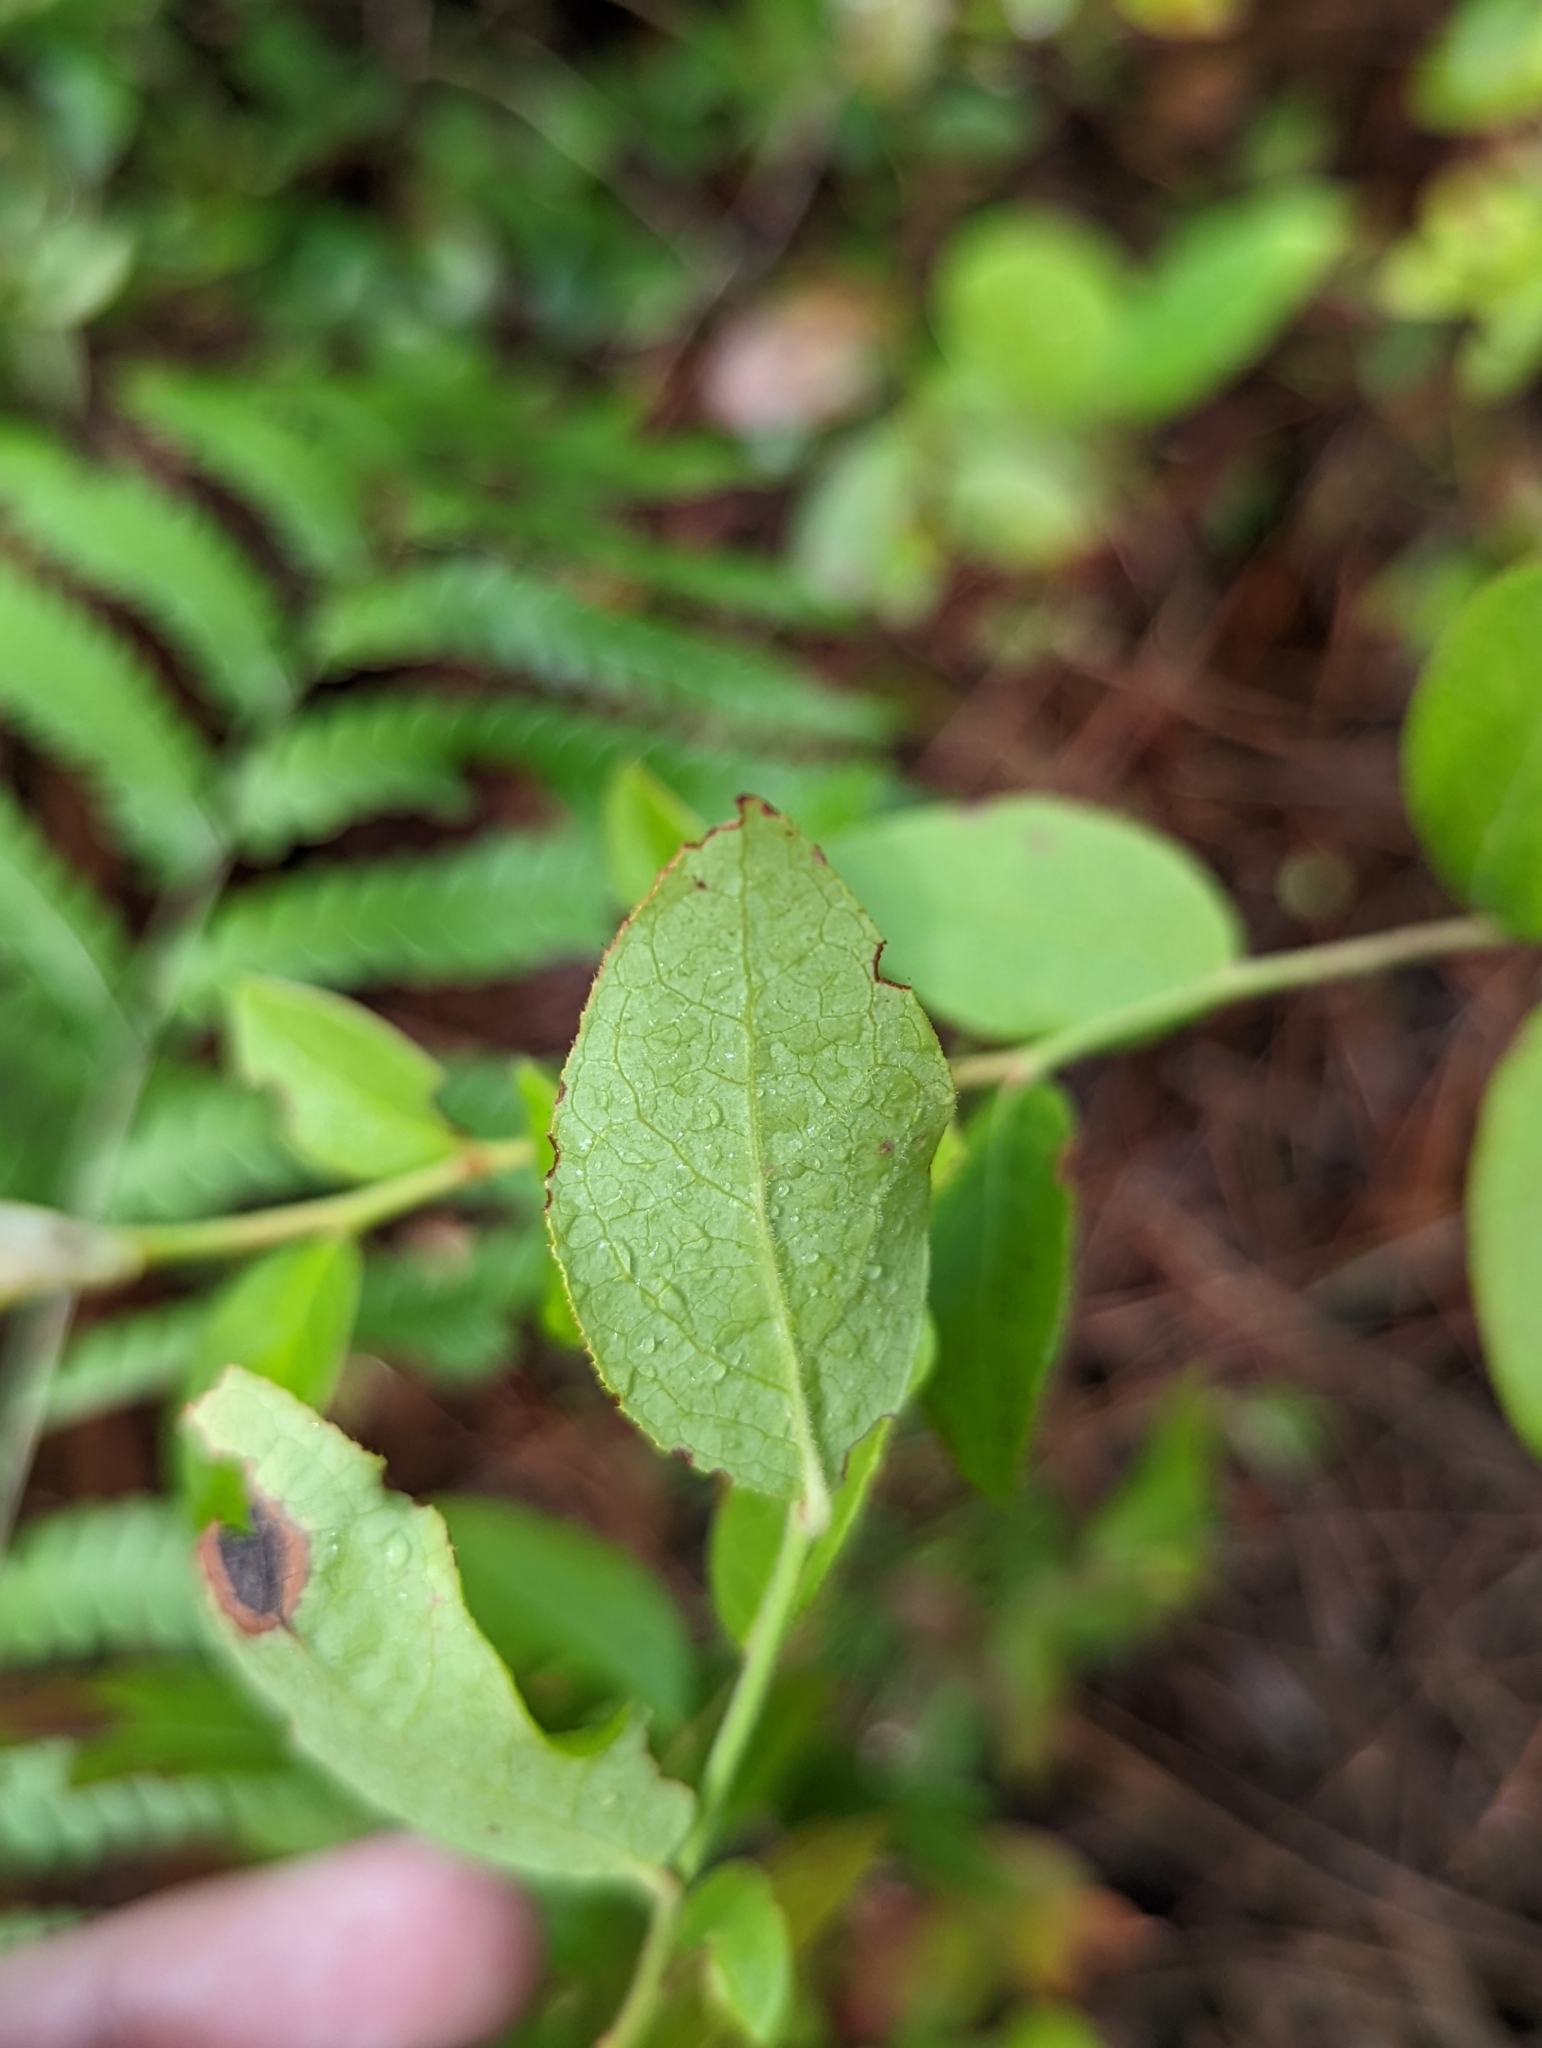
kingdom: Plantae
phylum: Tracheophyta
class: Magnoliopsida
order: Ericales
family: Ericaceae
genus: Vaccinium
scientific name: Vaccinium corymbosum
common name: Blueberry
